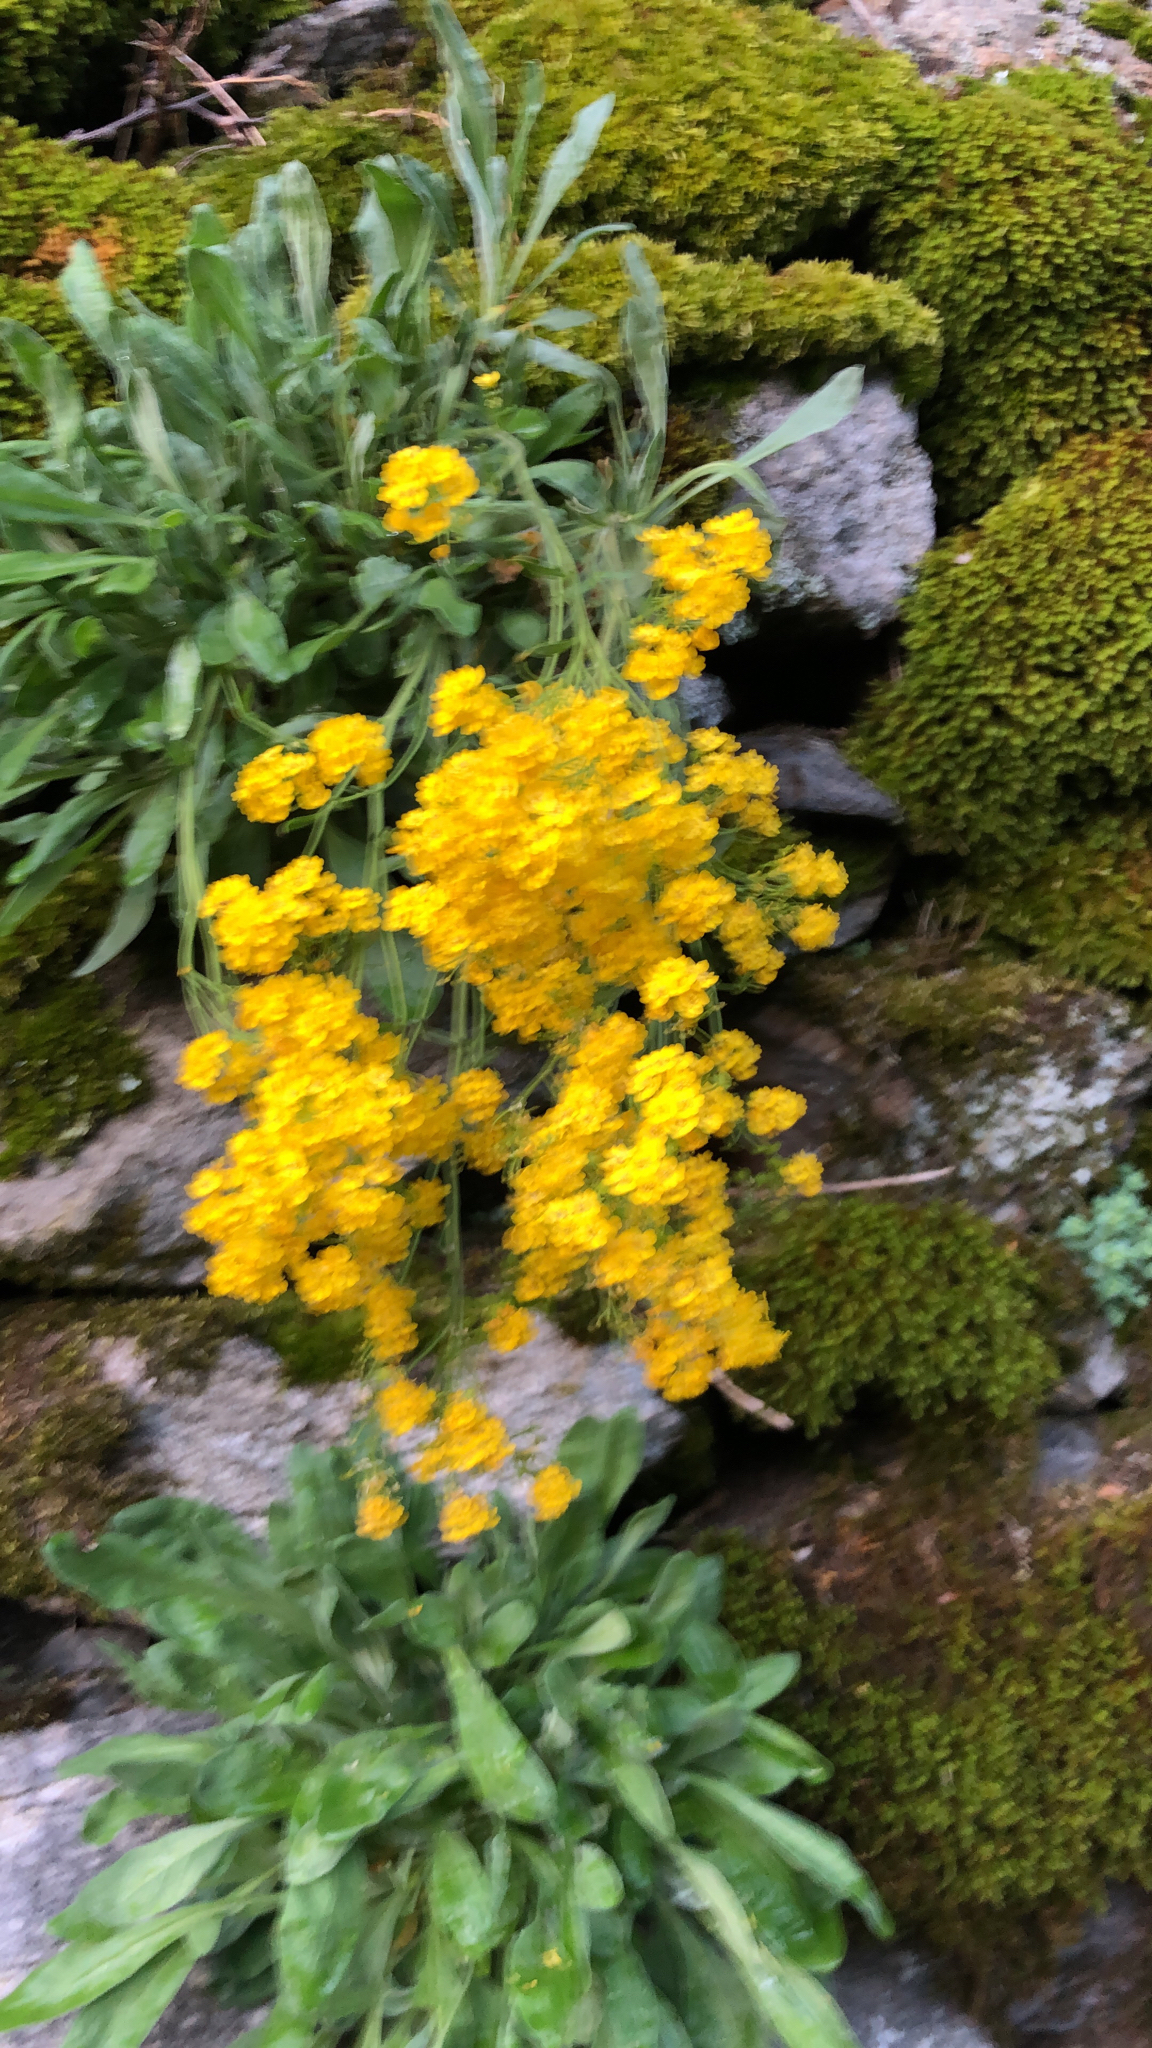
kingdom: Plantae
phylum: Tracheophyta
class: Magnoliopsida
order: Brassicales
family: Brassicaceae
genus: Aurinia
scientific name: Aurinia saxatilis
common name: Golden-tuft alyssum
